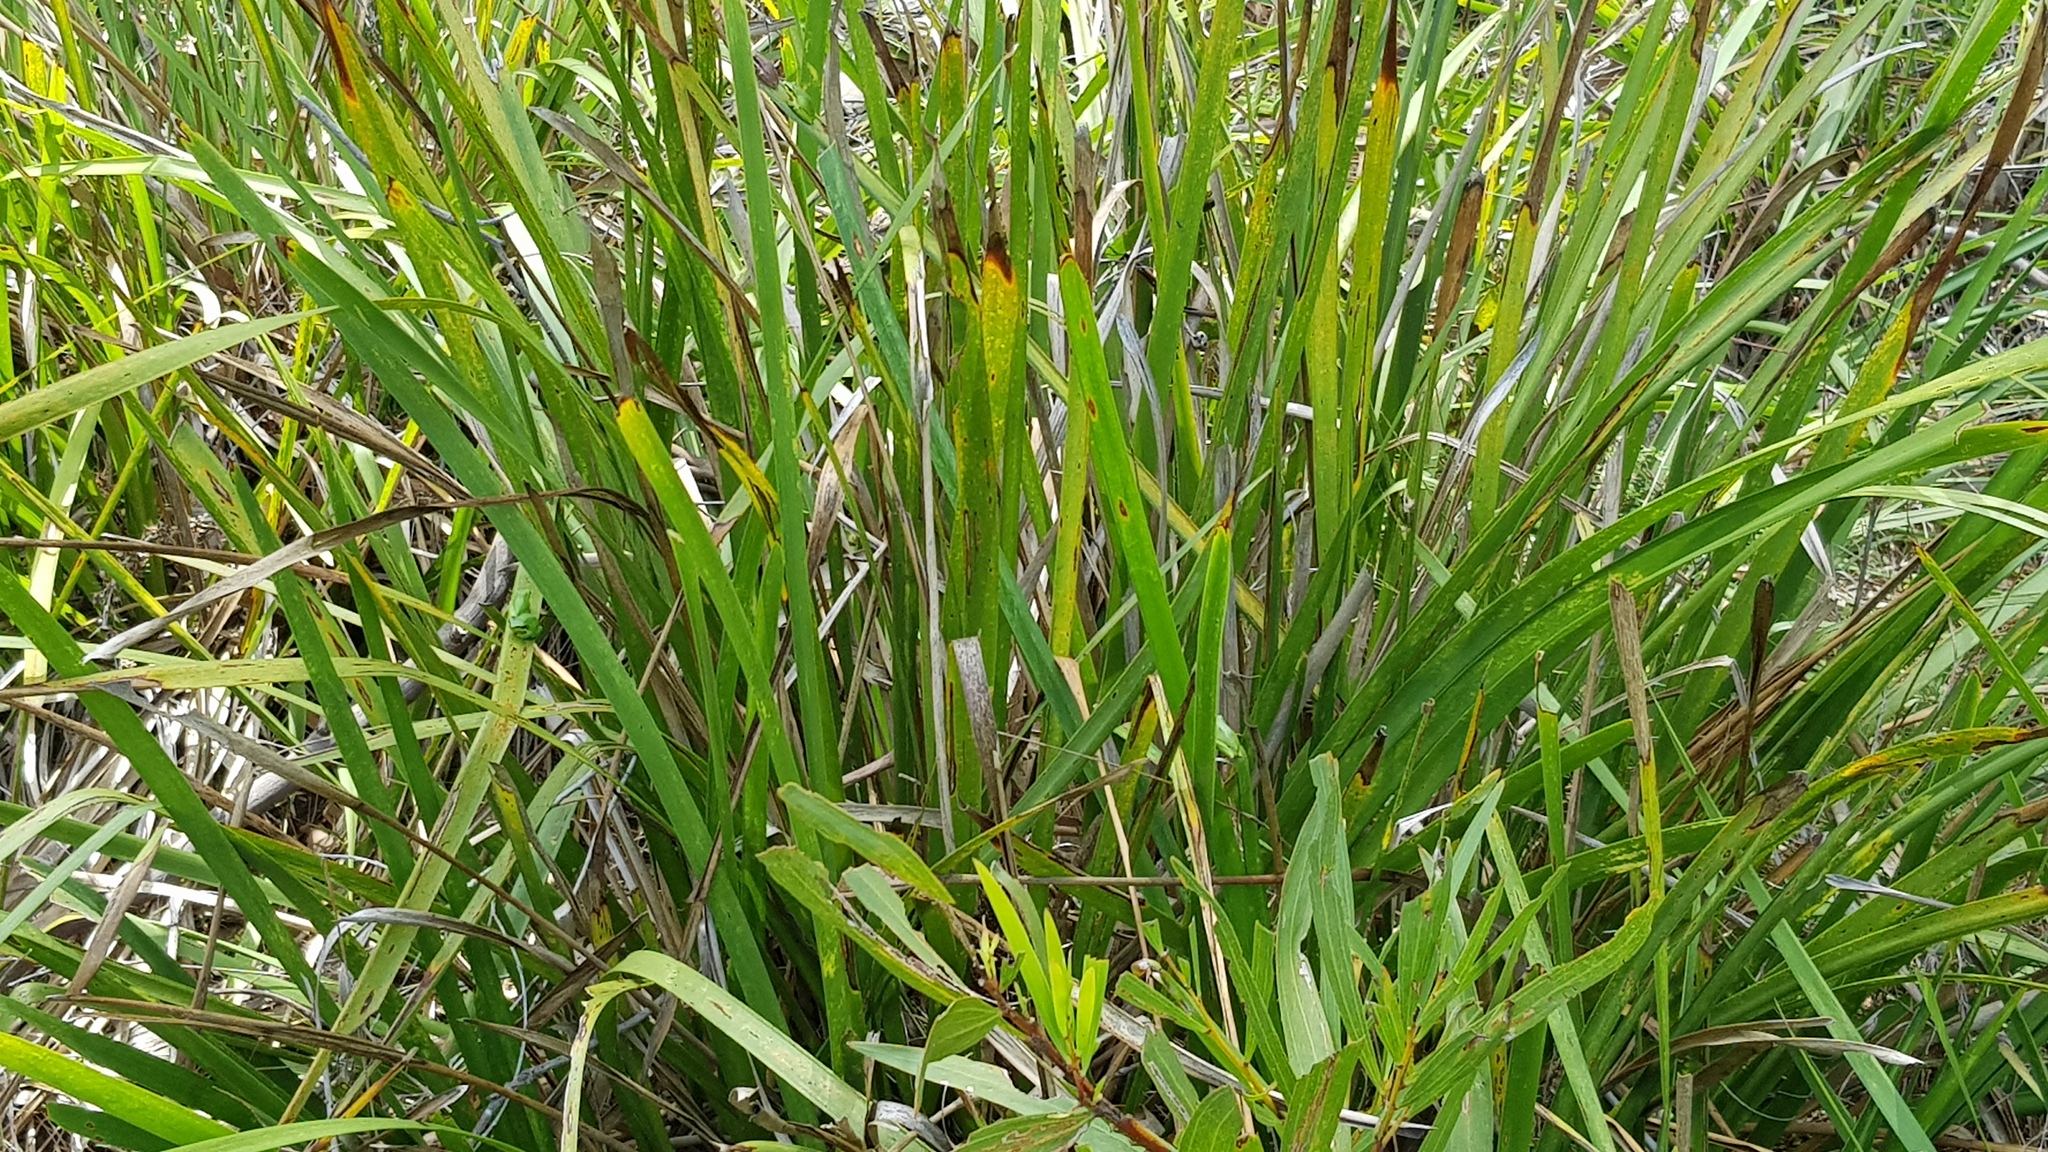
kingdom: Animalia
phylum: Chordata
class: Amphibia
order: Anura
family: Pelodryadidae
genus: Litoria
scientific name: Litoria fallax
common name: Eastern dwarf treefrog
